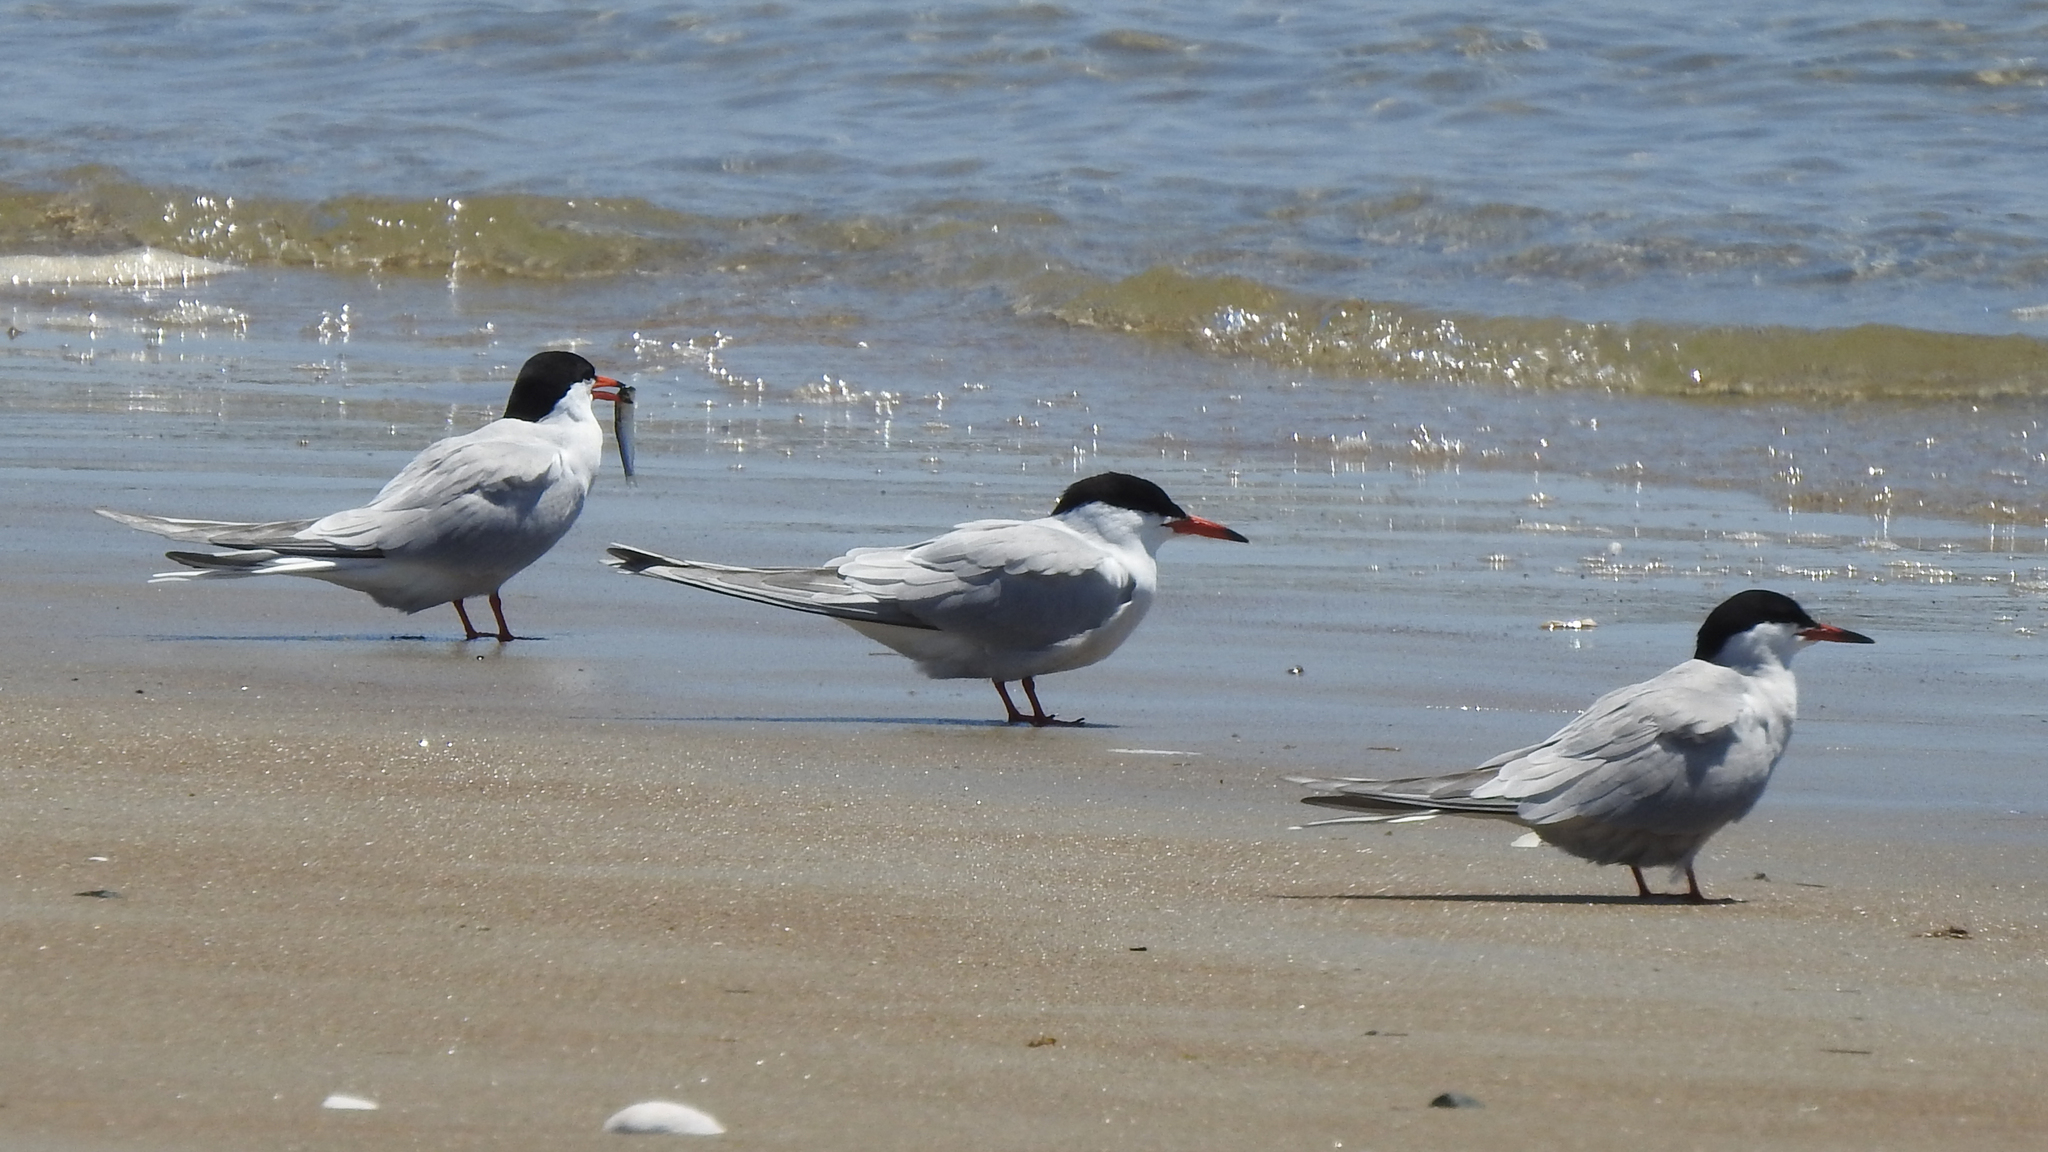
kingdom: Animalia
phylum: Chordata
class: Aves
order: Charadriiformes
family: Laridae
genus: Sternula
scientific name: Sternula antillarum
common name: Least tern
